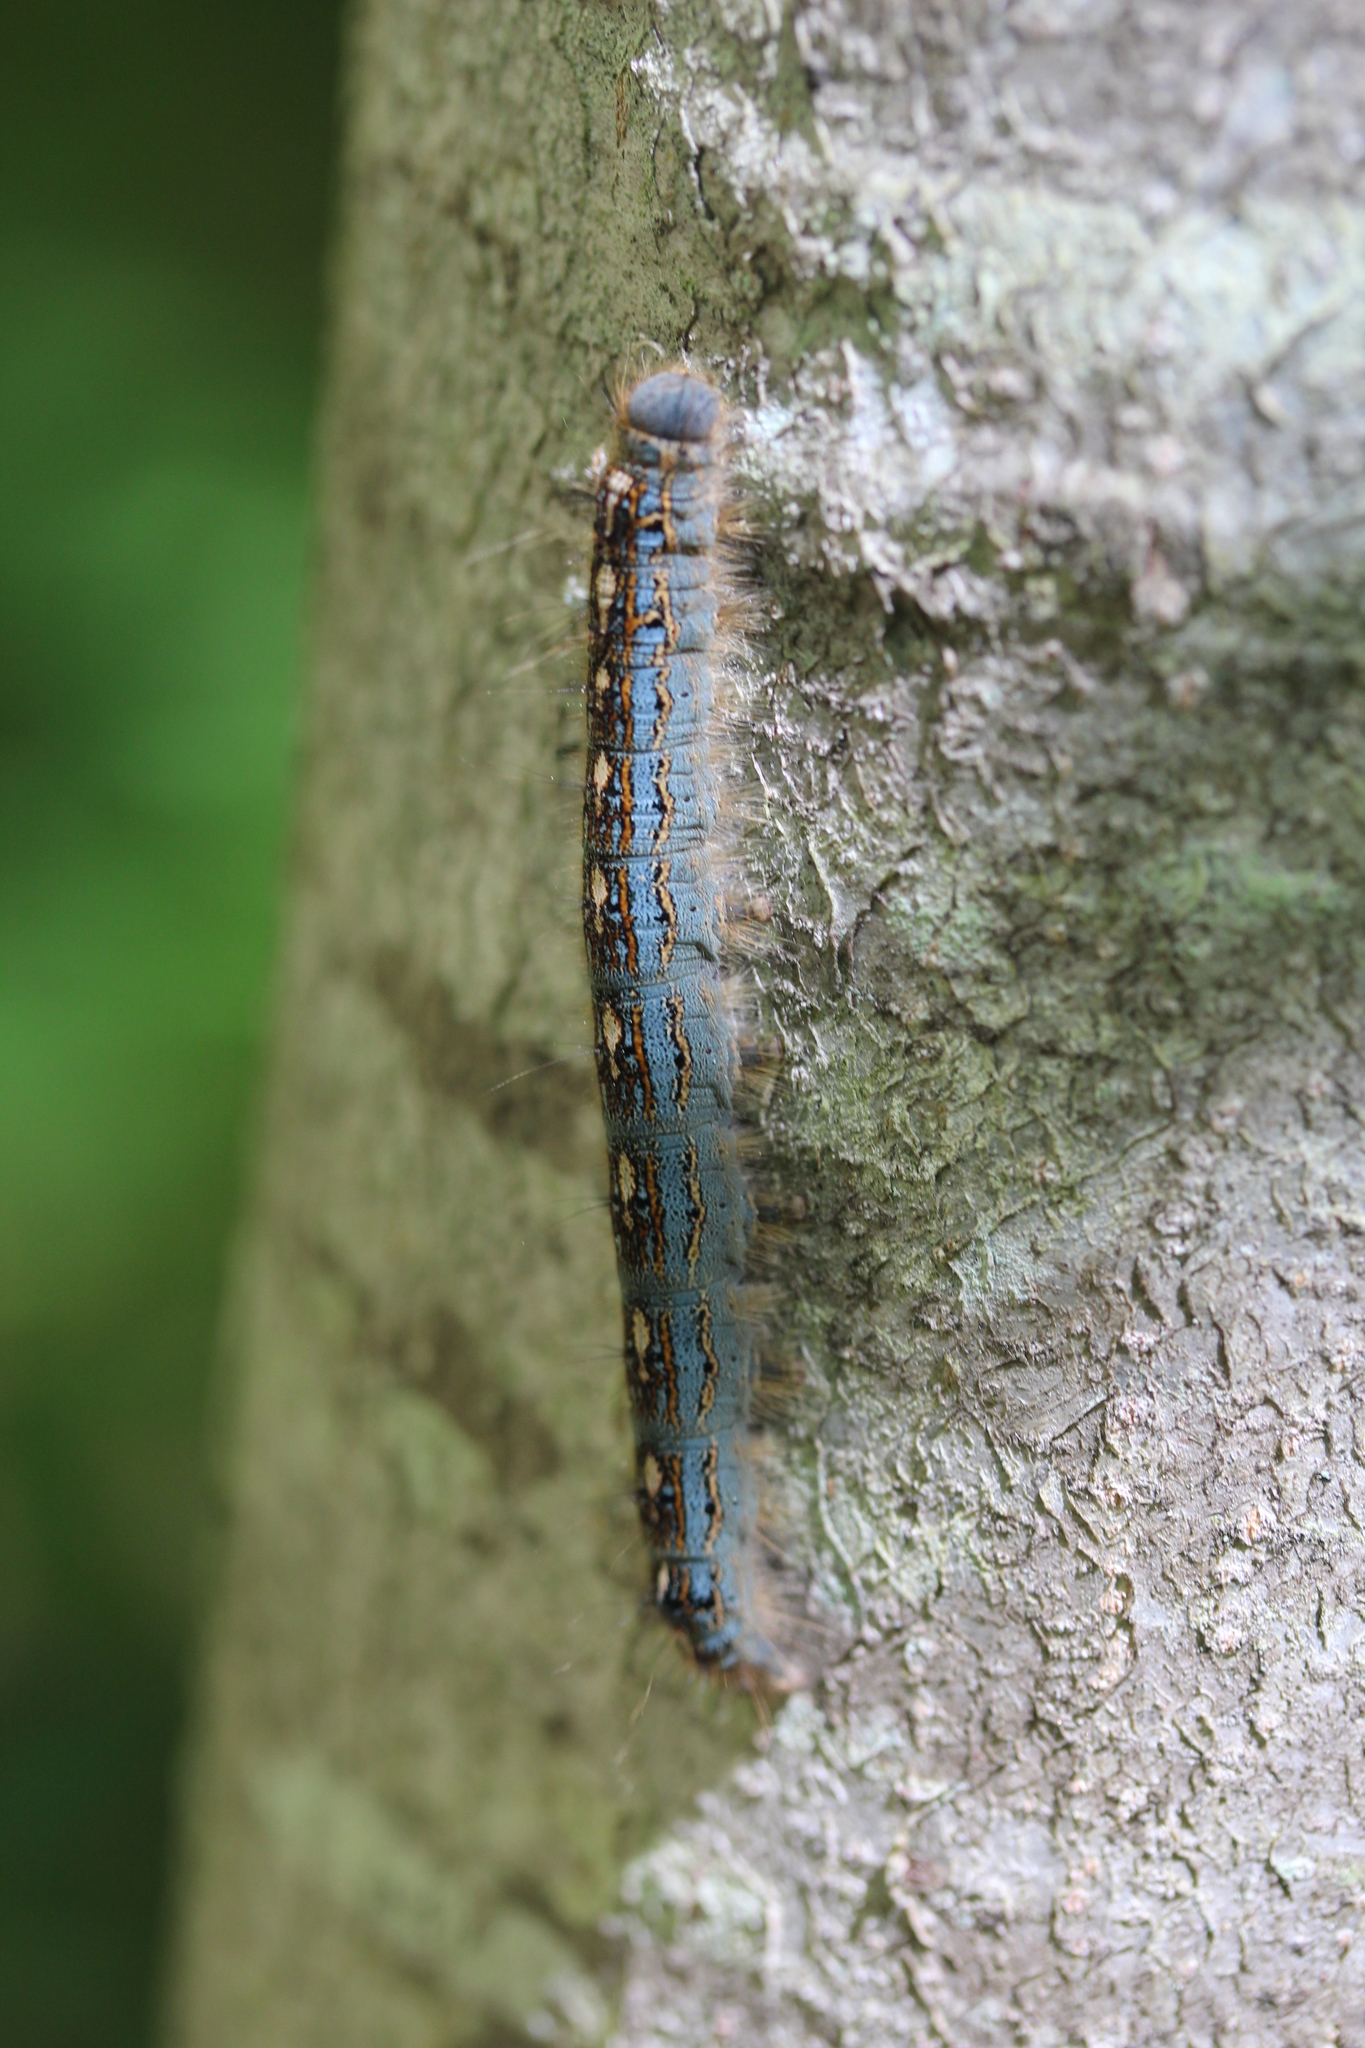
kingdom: Animalia
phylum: Arthropoda
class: Insecta
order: Lepidoptera
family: Lasiocampidae
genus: Malacosoma
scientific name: Malacosoma disstria
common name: Forest tent caterpillar
